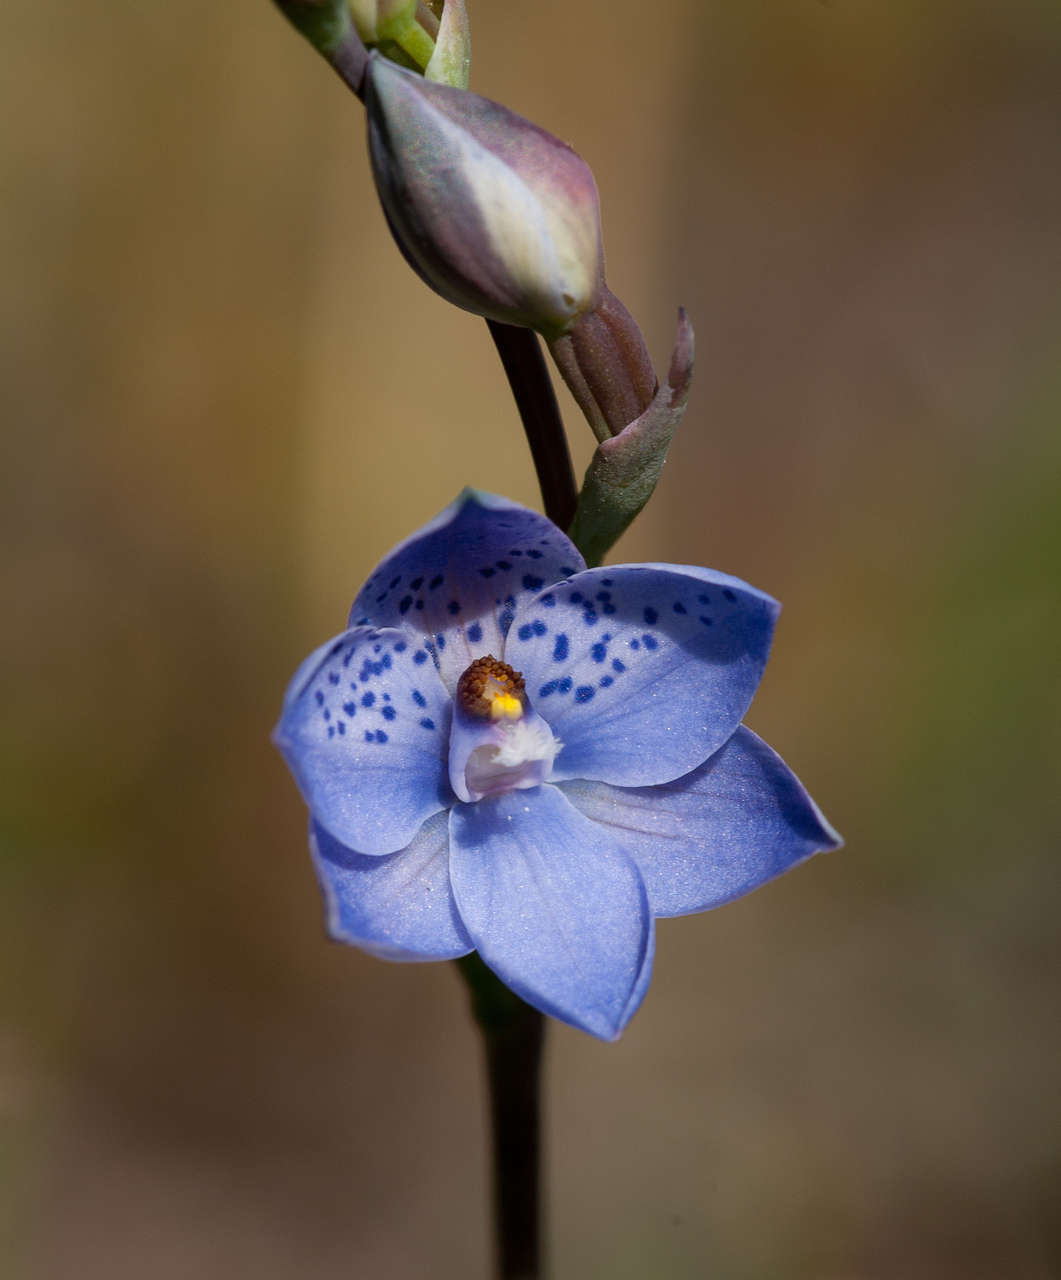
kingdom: Plantae
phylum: Tracheophyta
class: Liliopsida
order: Asparagales
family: Orchidaceae
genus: Thelymitra
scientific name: Thelymitra ixioides
